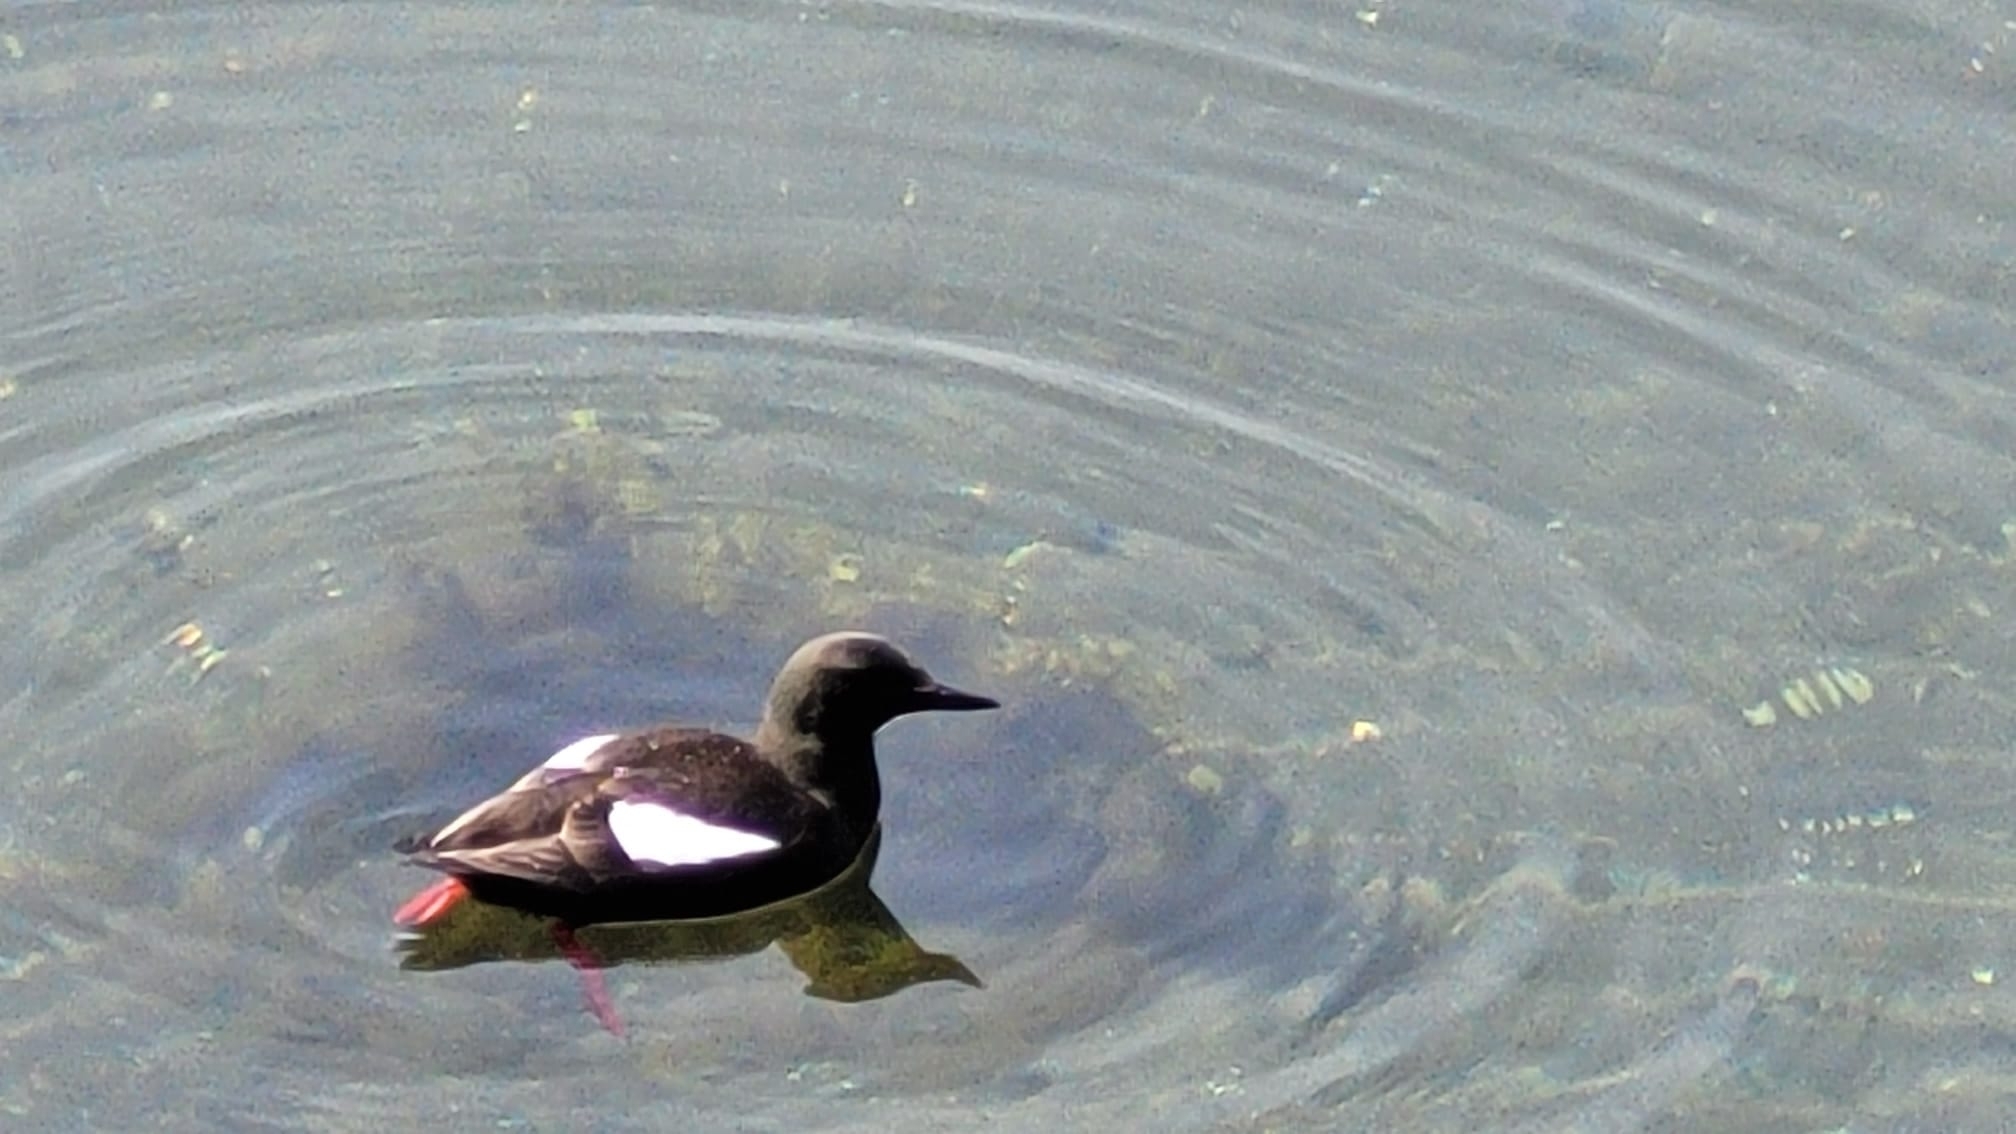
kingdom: Animalia
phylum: Chordata
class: Aves
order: Charadriiformes
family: Alcidae
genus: Cepphus
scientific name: Cepphus grylle
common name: Black guillemot
